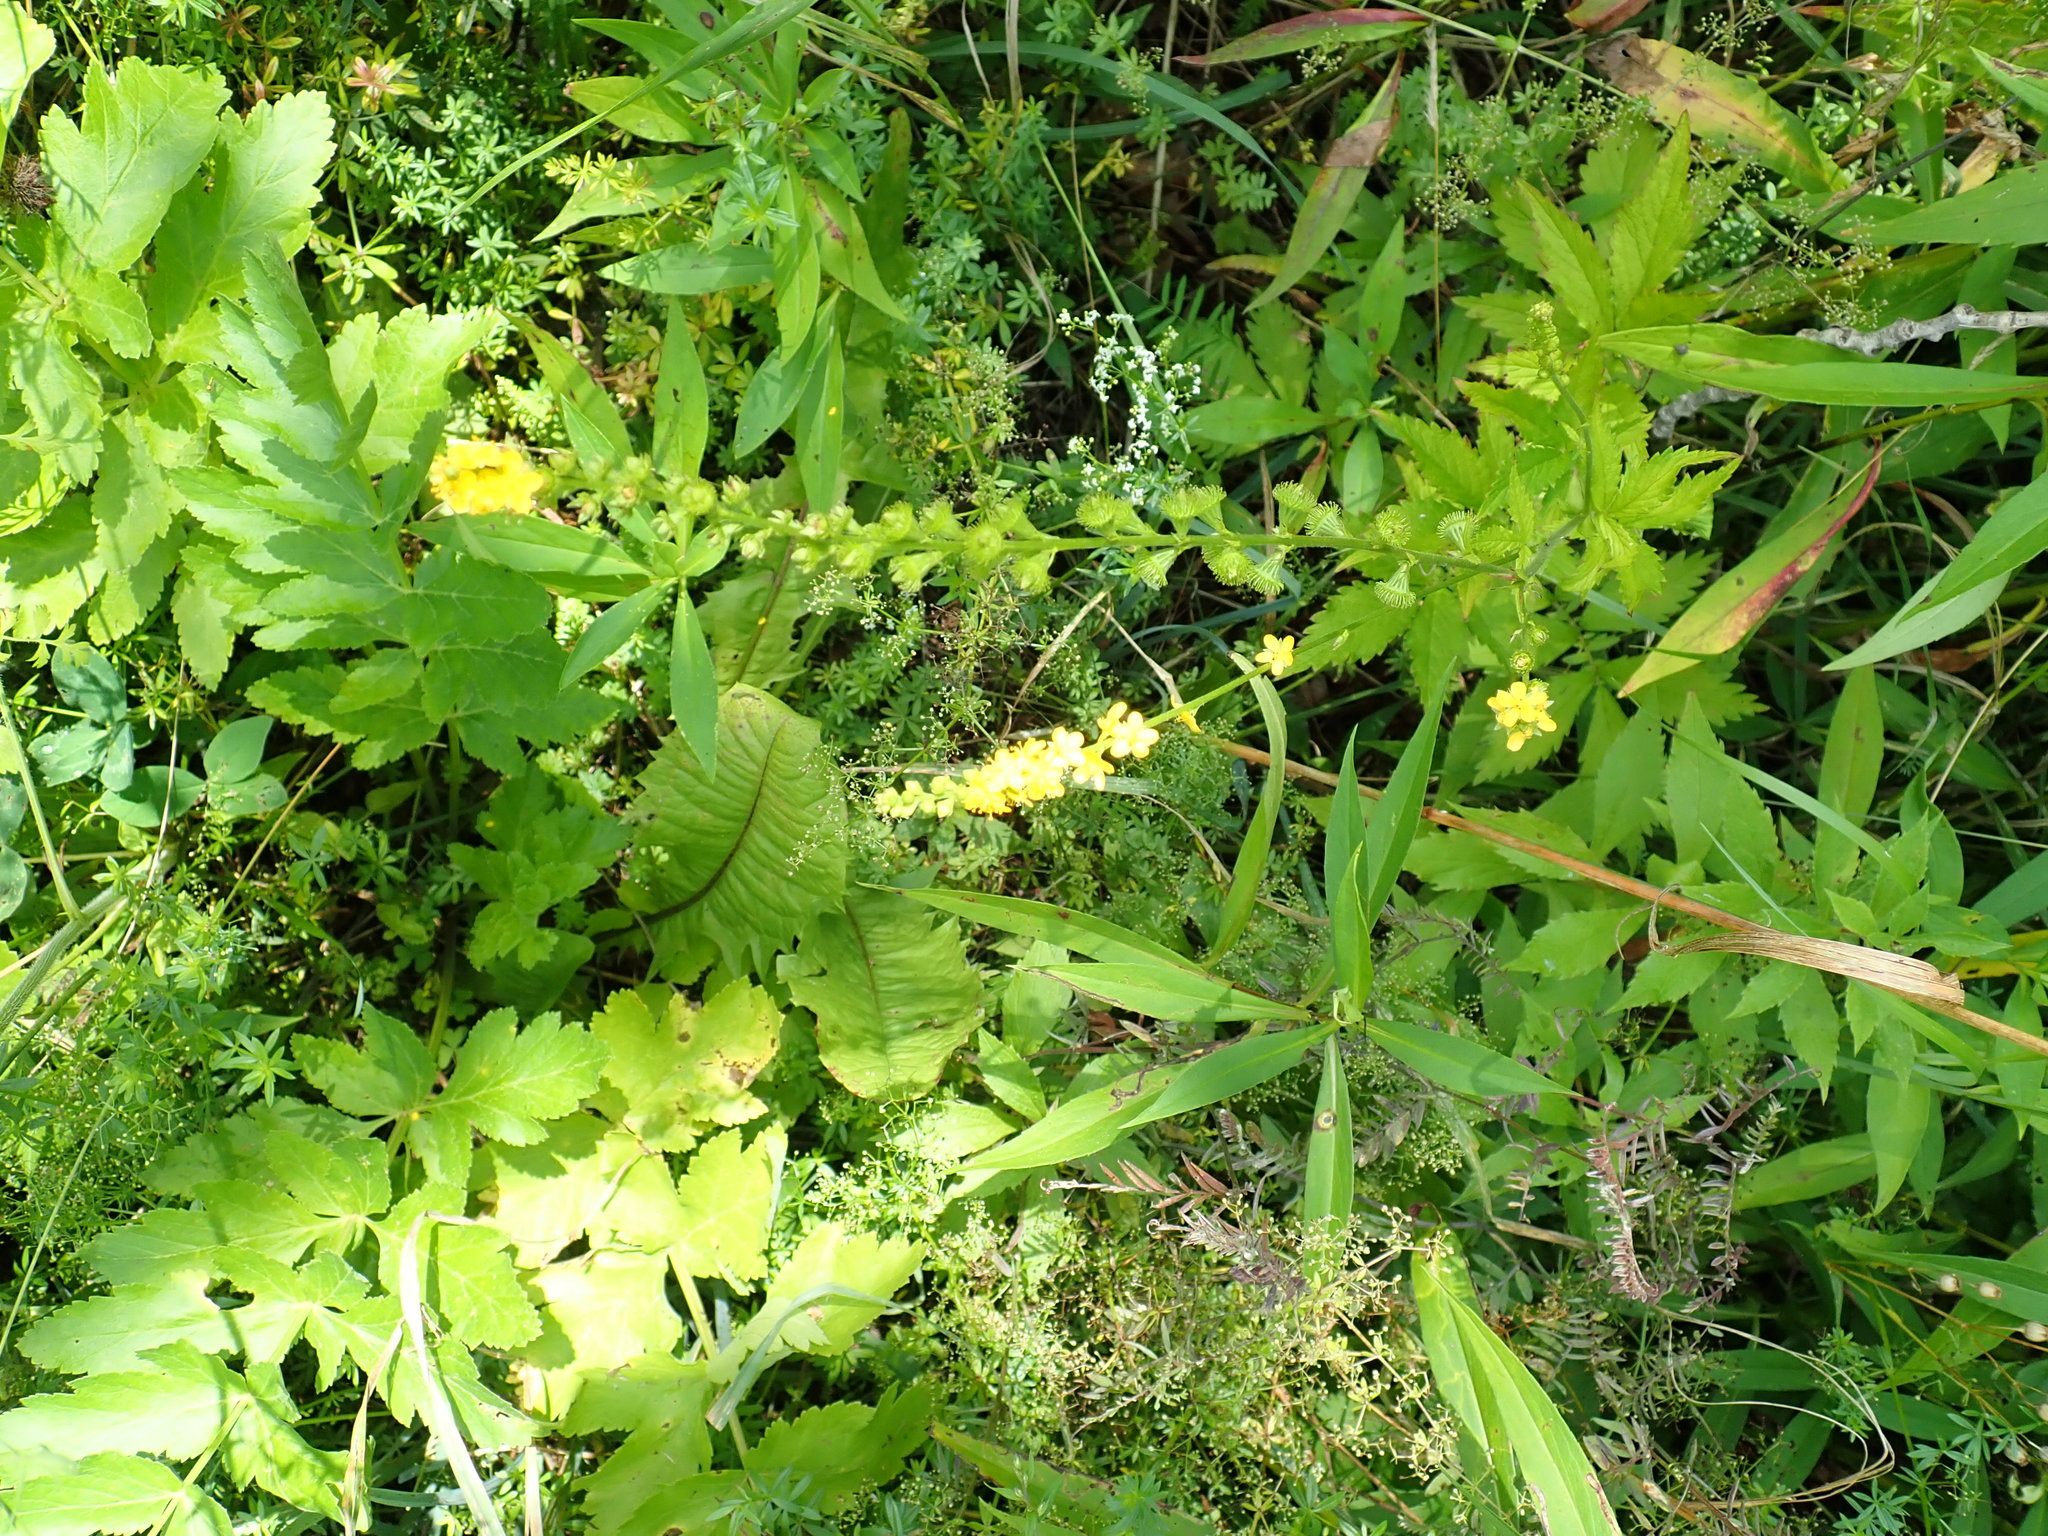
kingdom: Plantae
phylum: Tracheophyta
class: Magnoliopsida
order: Rosales
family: Rosaceae
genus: Agrimonia
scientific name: Agrimonia
